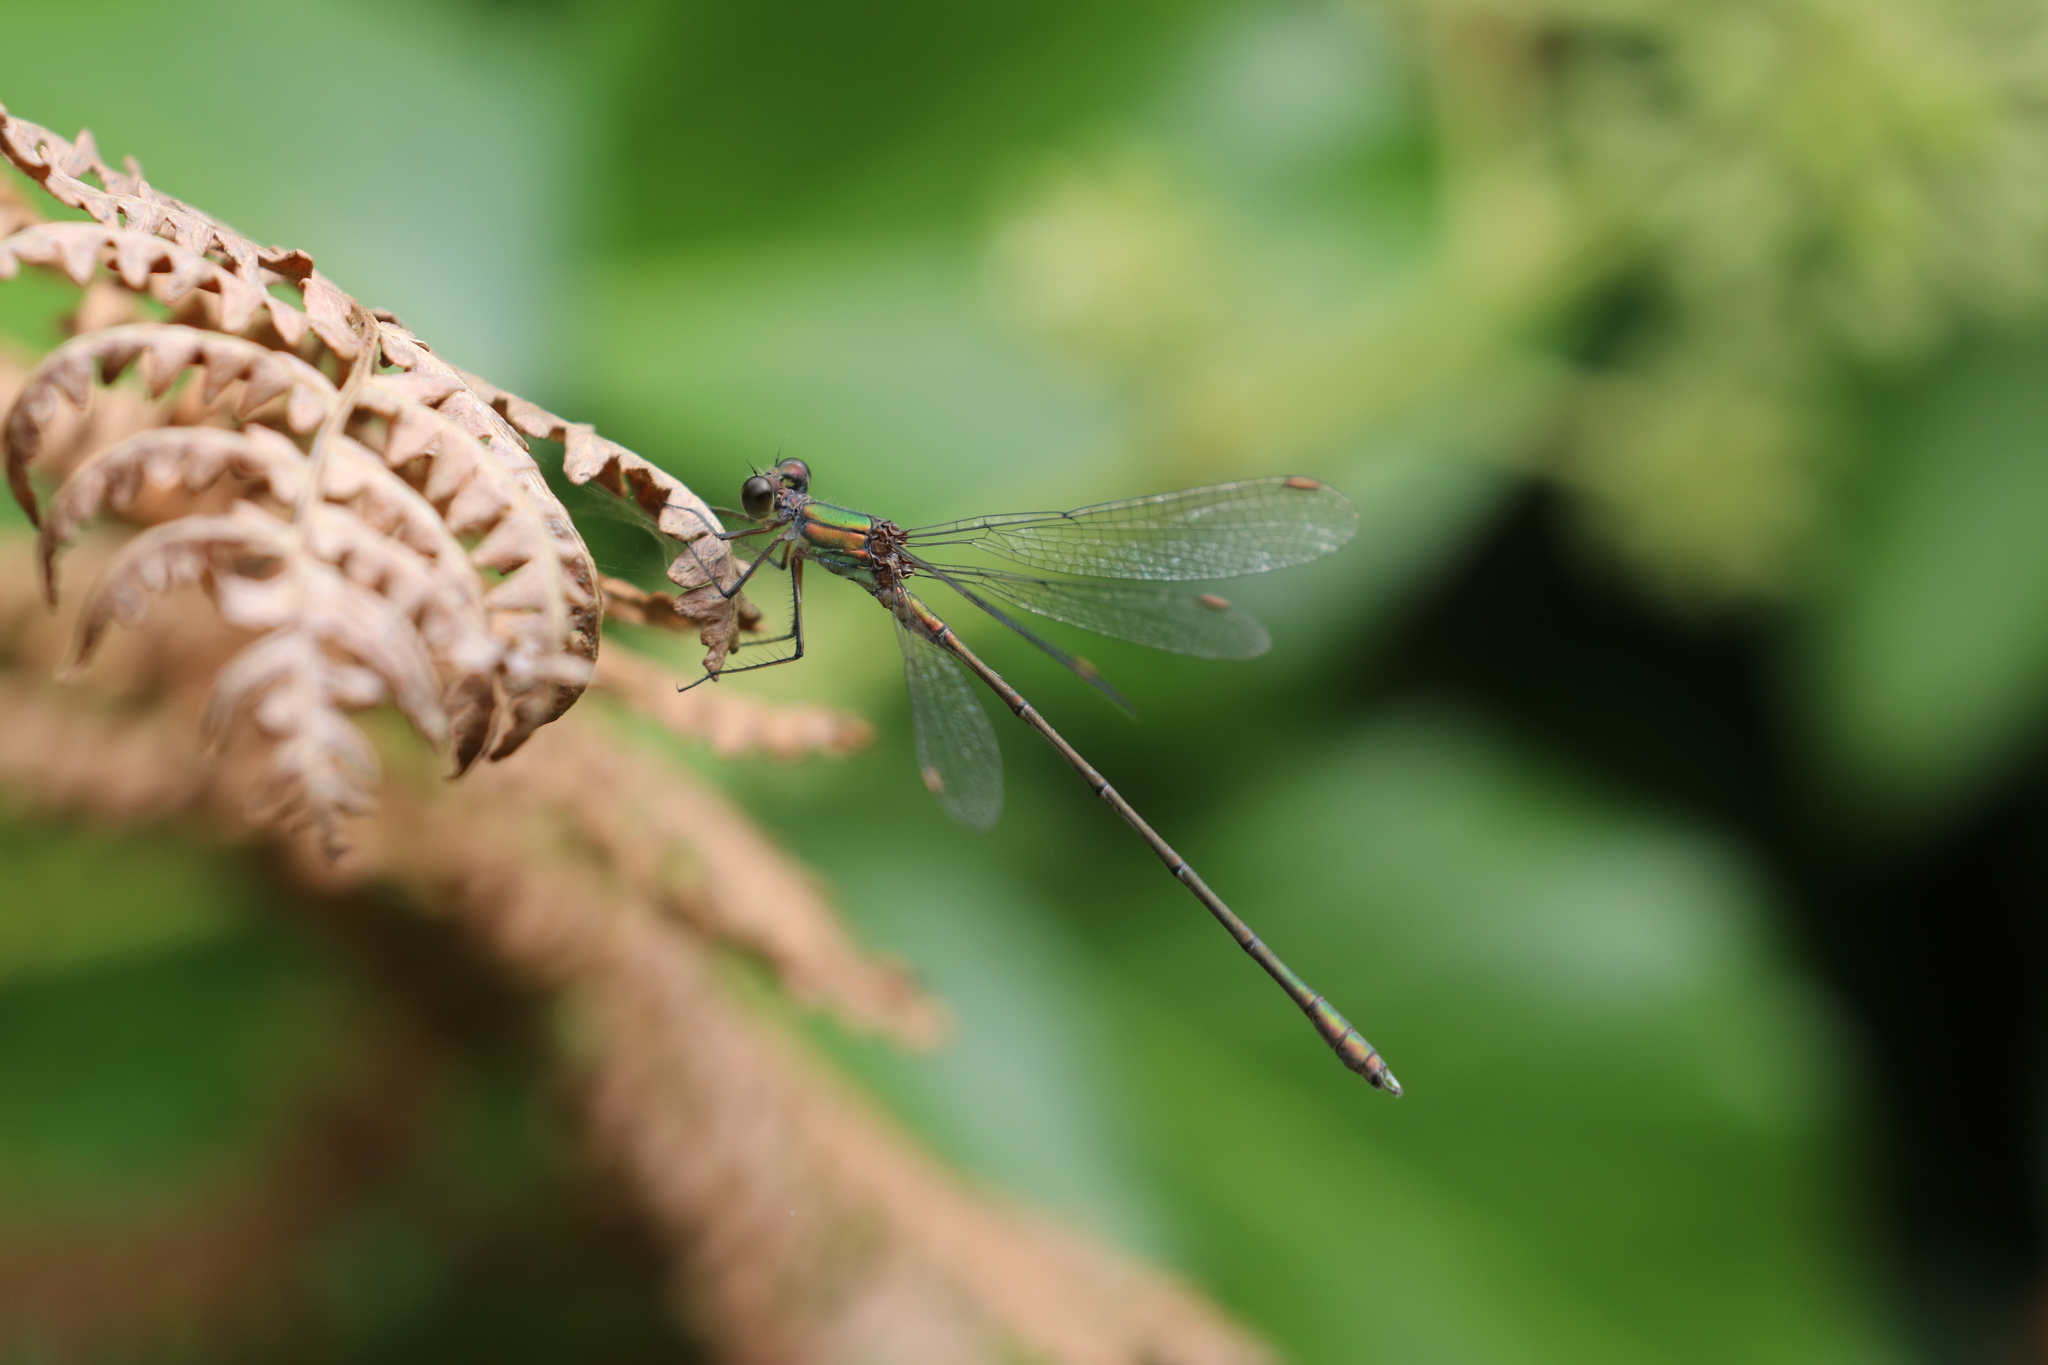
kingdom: Animalia
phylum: Arthropoda
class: Insecta
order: Odonata
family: Lestidae
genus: Chalcolestes
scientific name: Chalcolestes viridis
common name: Green emerald damselfly
